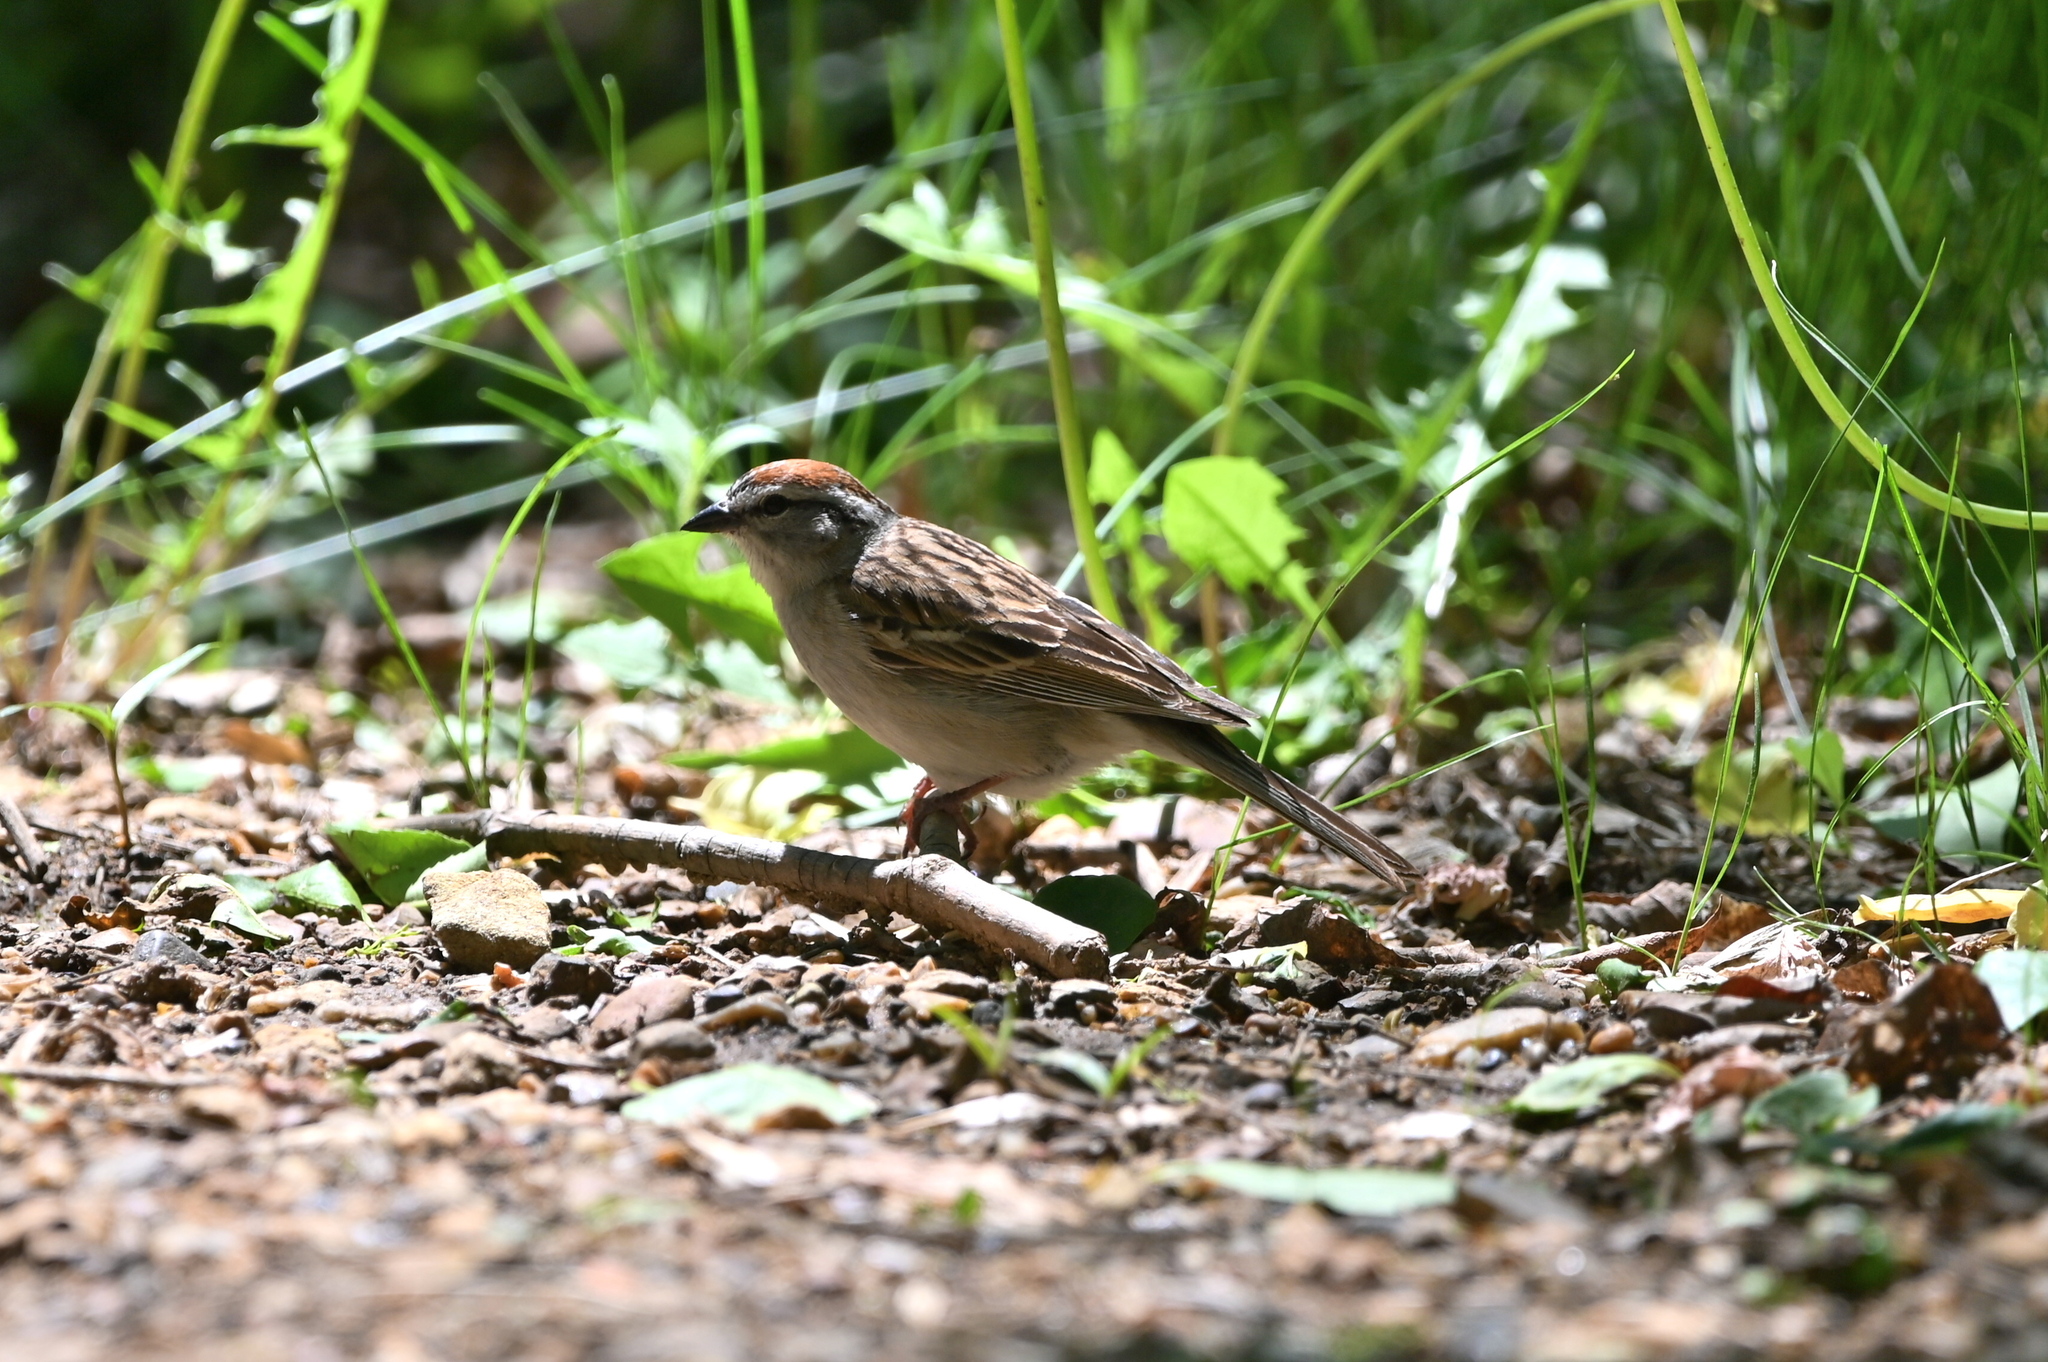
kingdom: Animalia
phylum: Chordata
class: Aves
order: Passeriformes
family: Passerellidae
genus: Spizella
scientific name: Spizella passerina
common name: Chipping sparrow
